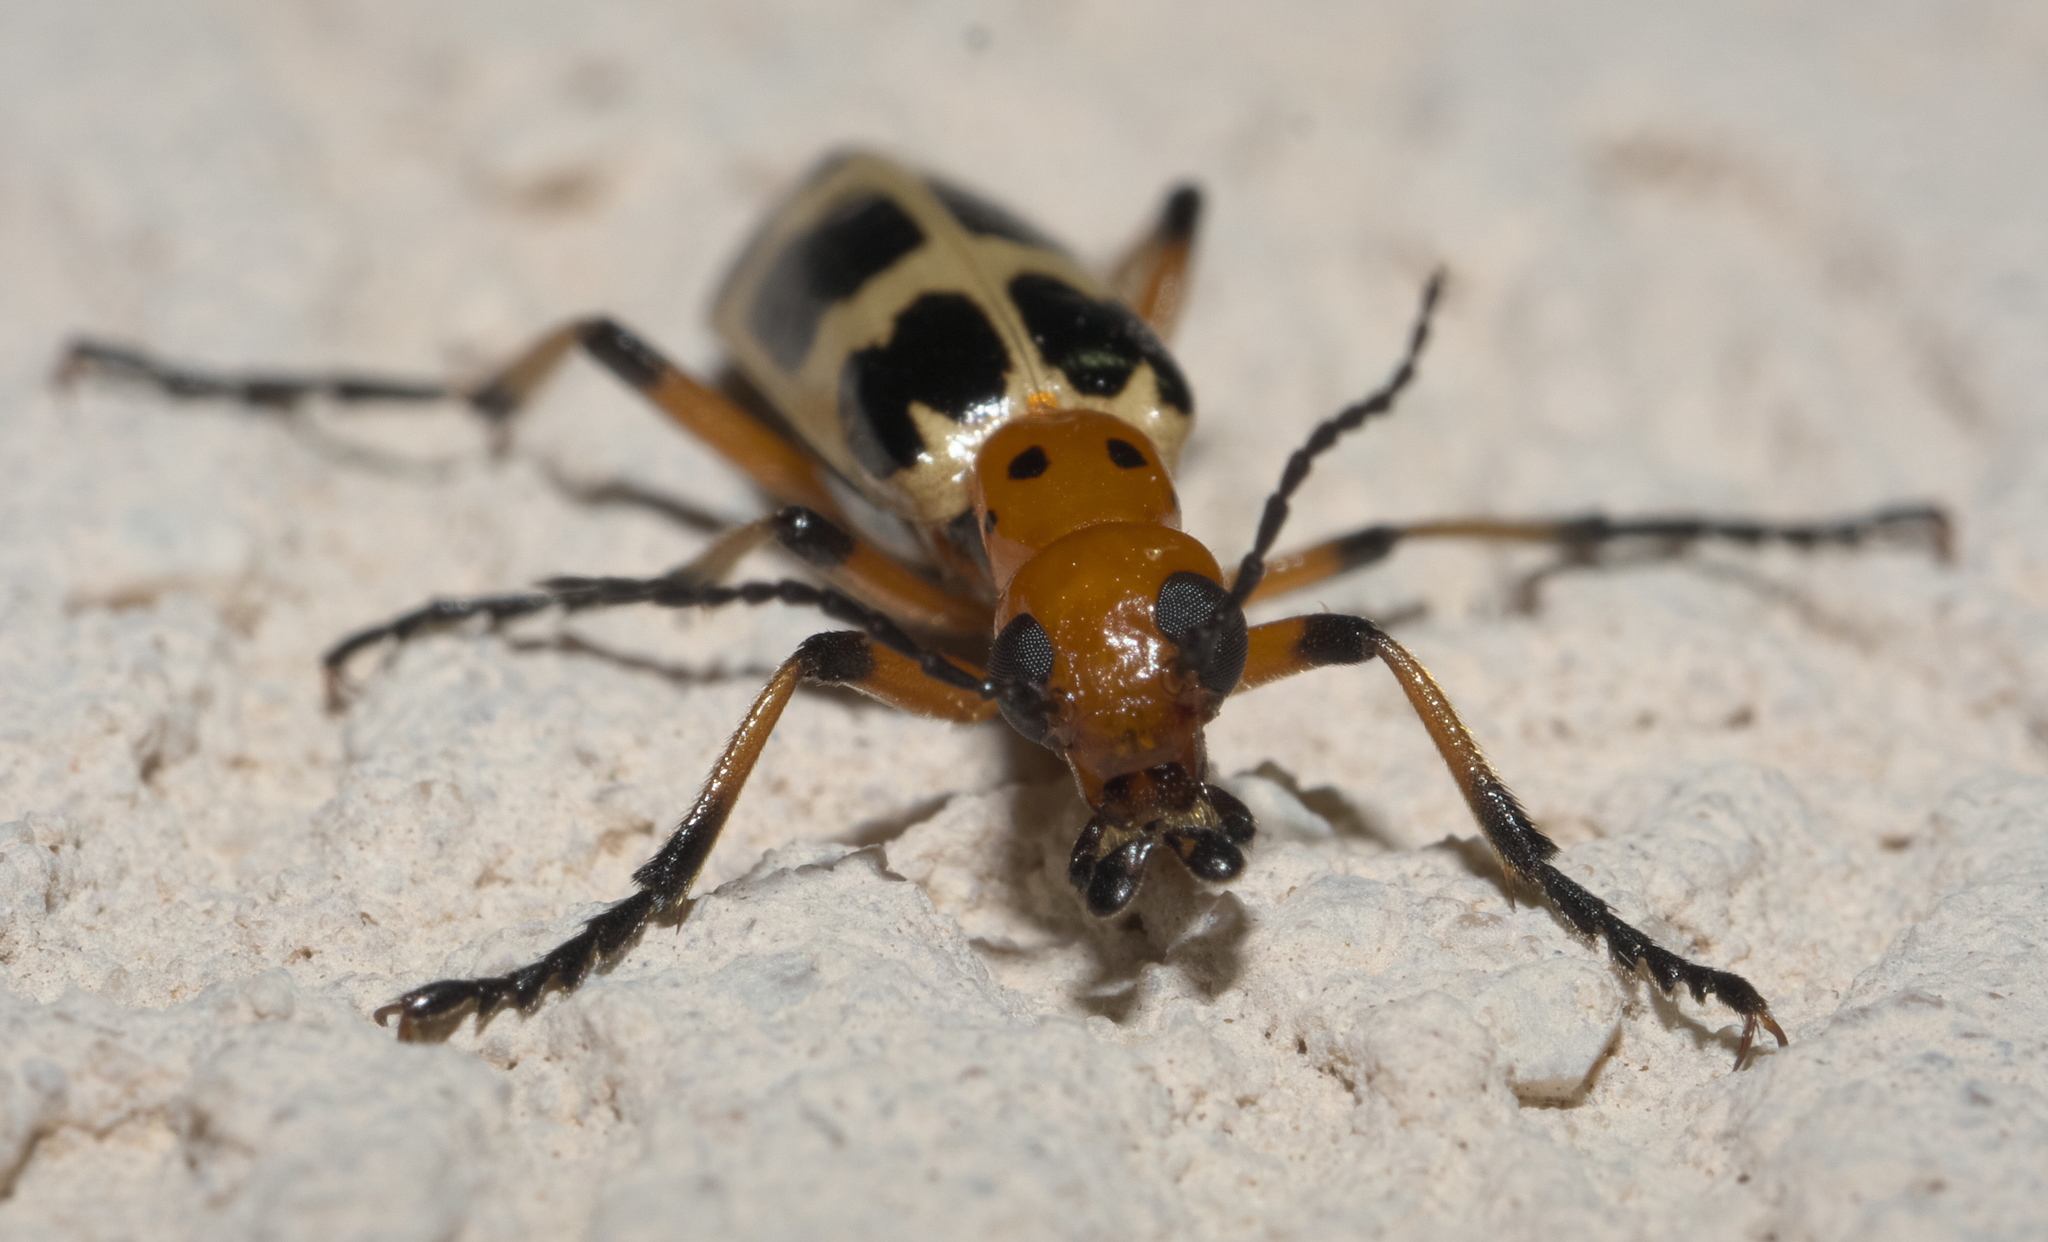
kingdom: Animalia
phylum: Arthropoda
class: Insecta
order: Coleoptera
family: Meloidae
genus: Pyrota
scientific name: Pyrota palpalis
